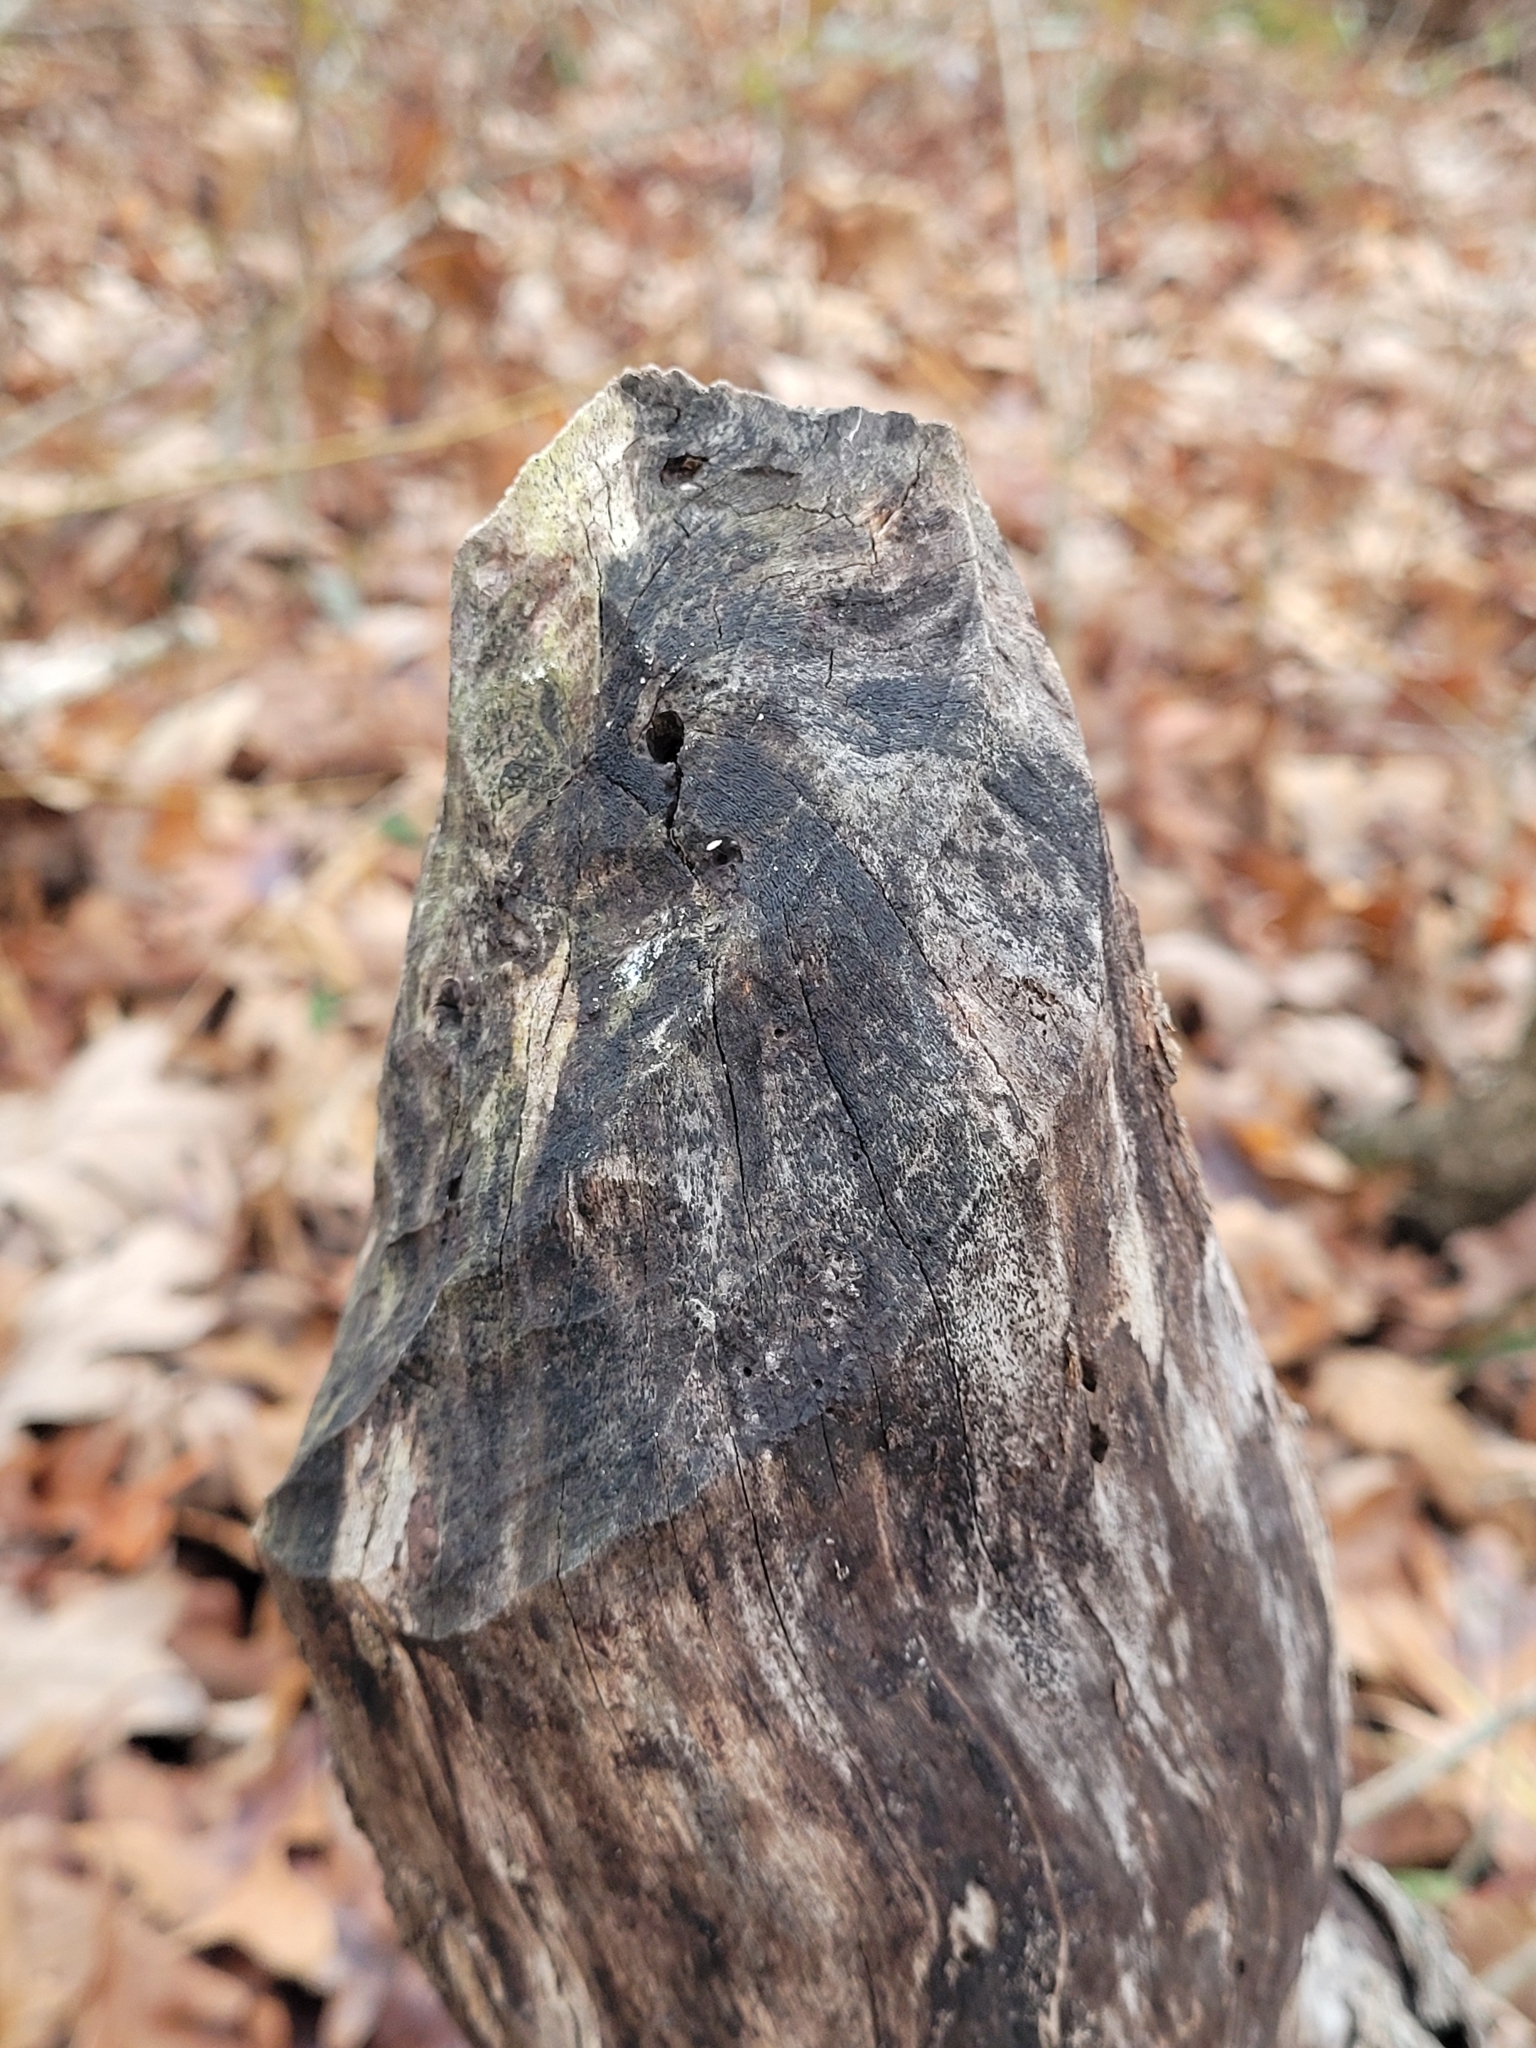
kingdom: Animalia
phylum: Chordata
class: Mammalia
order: Rodentia
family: Castoridae
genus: Castor
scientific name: Castor canadensis
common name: American beaver
